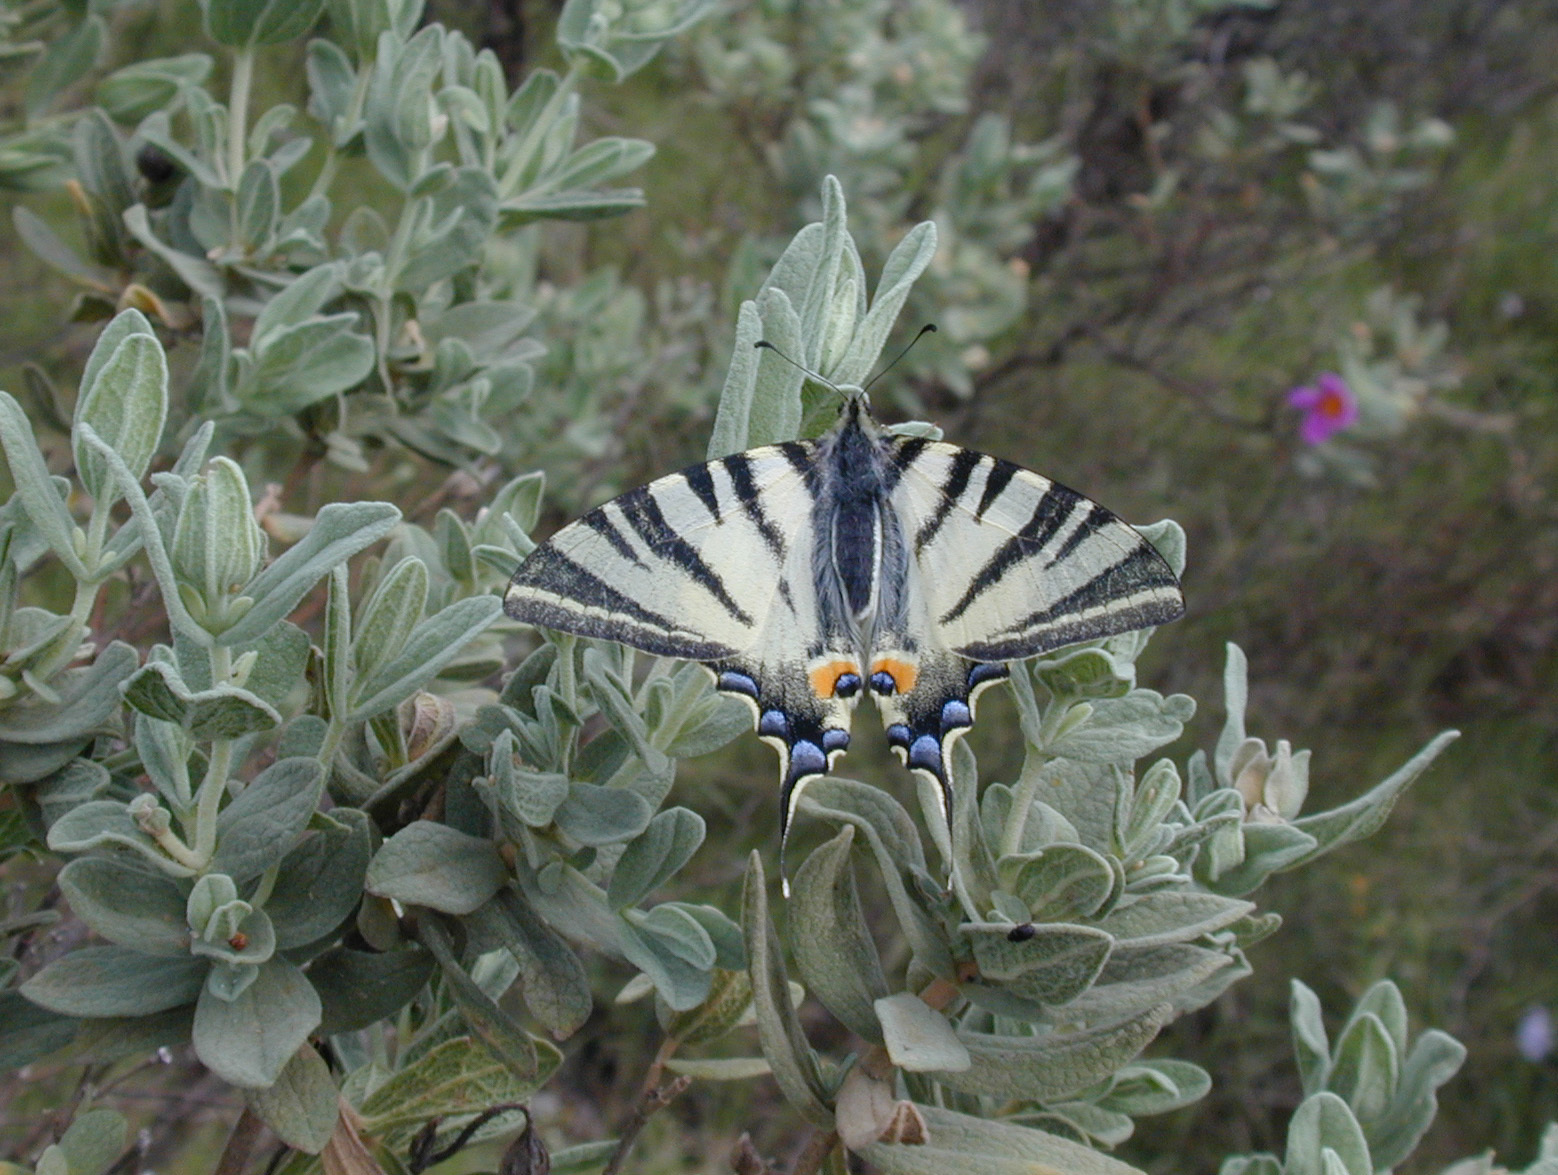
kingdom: Animalia
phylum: Arthropoda
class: Insecta
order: Lepidoptera
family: Papilionidae
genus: Iphiclides
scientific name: Iphiclides podalirius
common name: Scarce swallowtail
